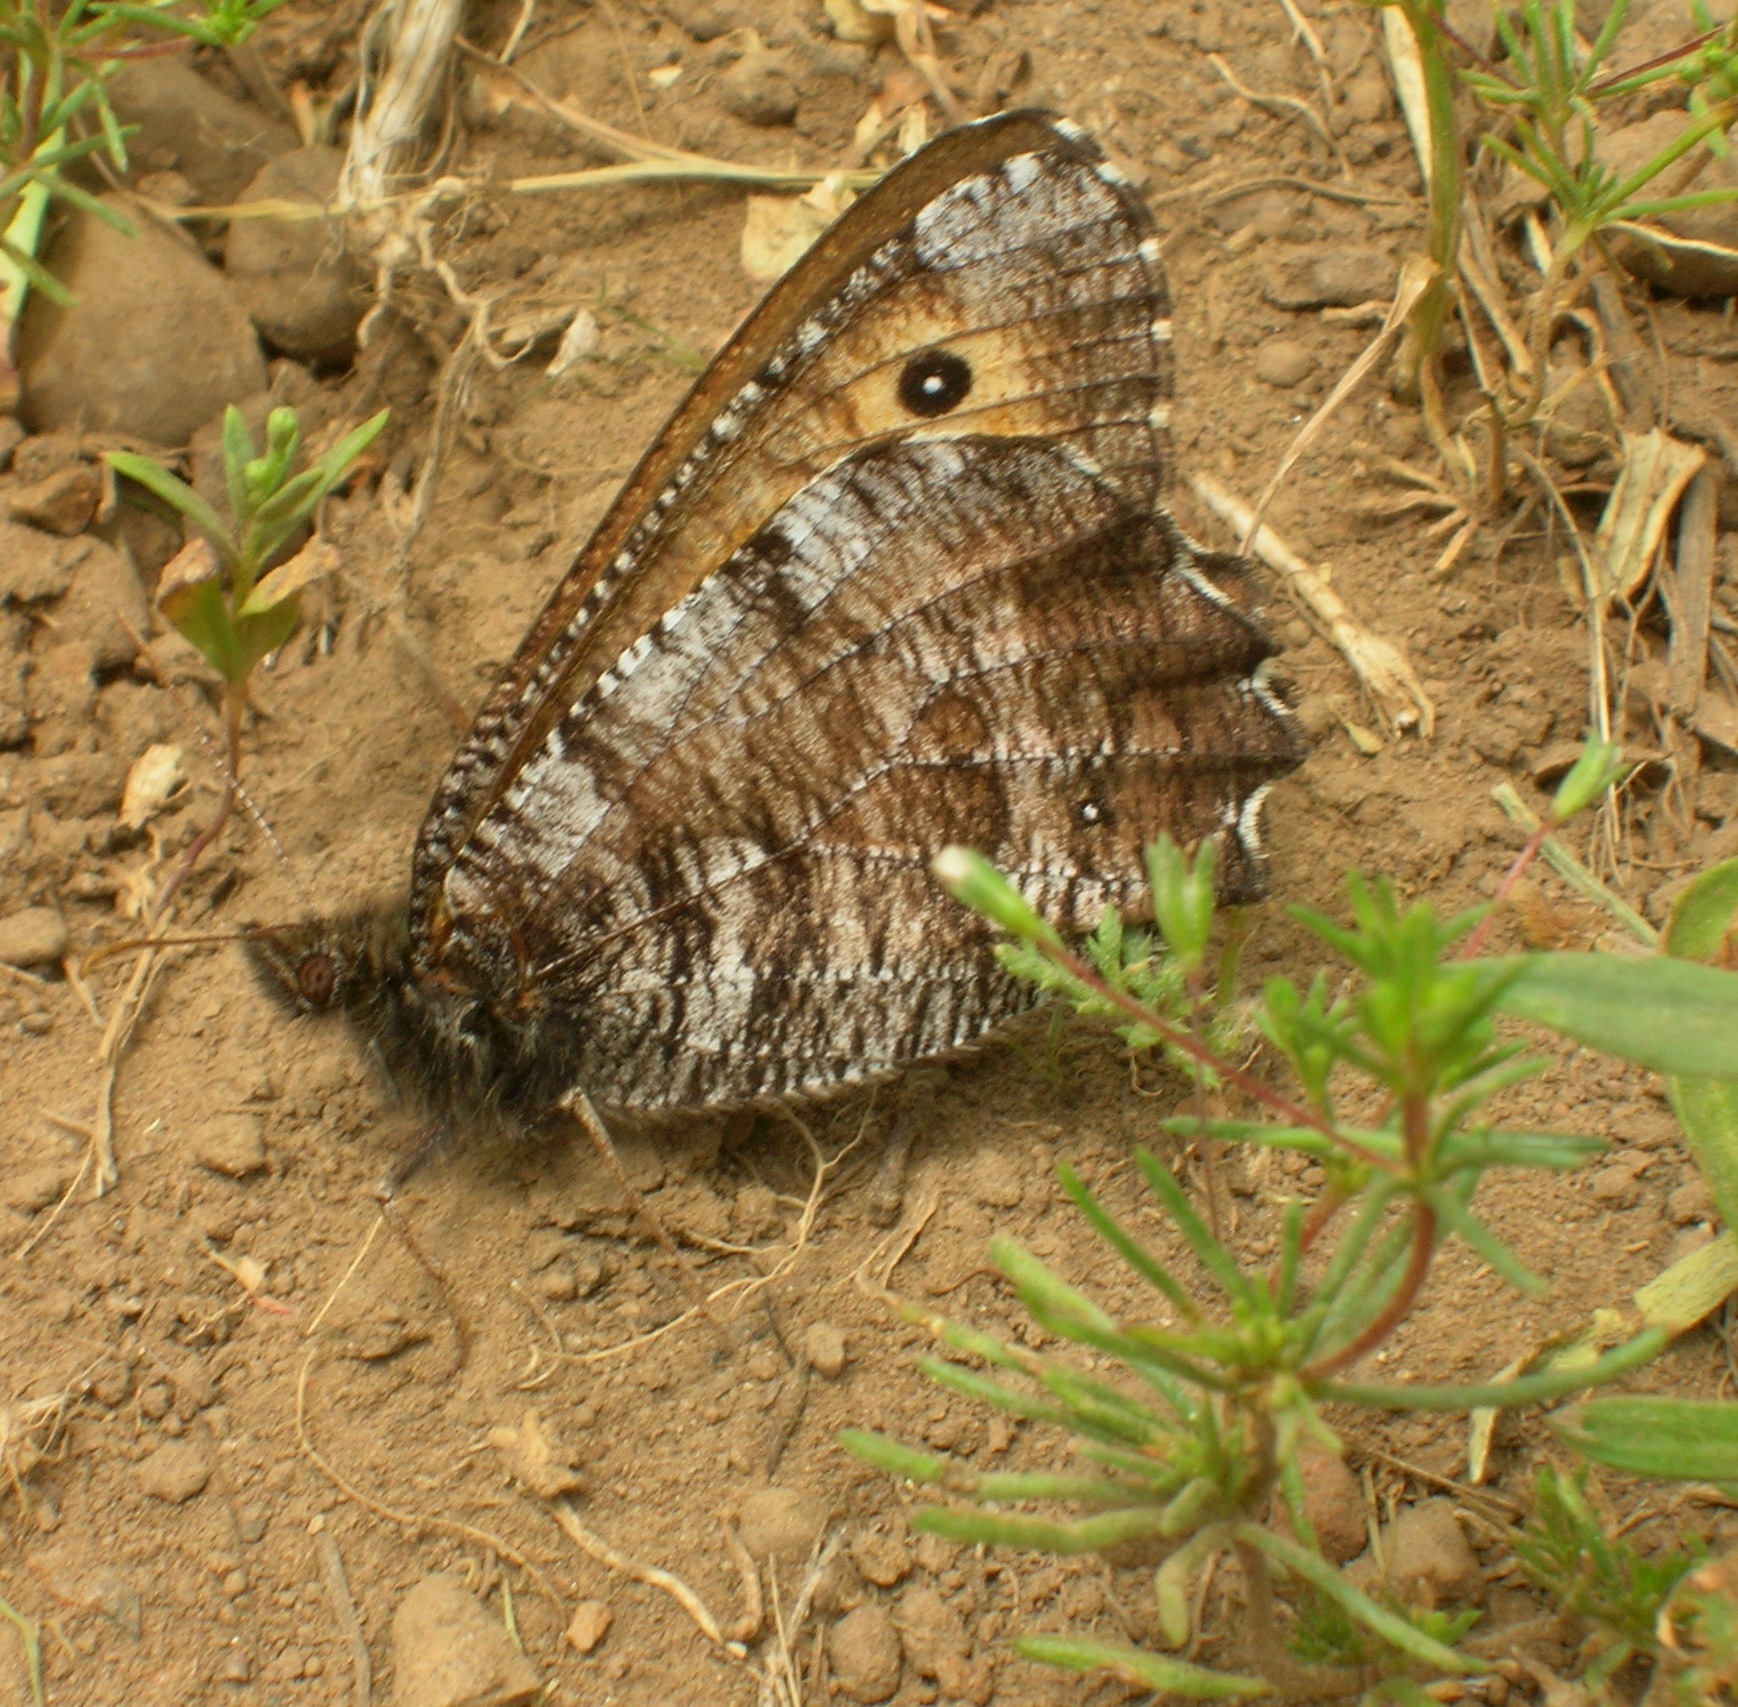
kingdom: Animalia
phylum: Arthropoda
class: Insecta
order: Lepidoptera
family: Nymphalidae
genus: Oeneis
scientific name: Oeneis nevadensis
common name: Great arctic
